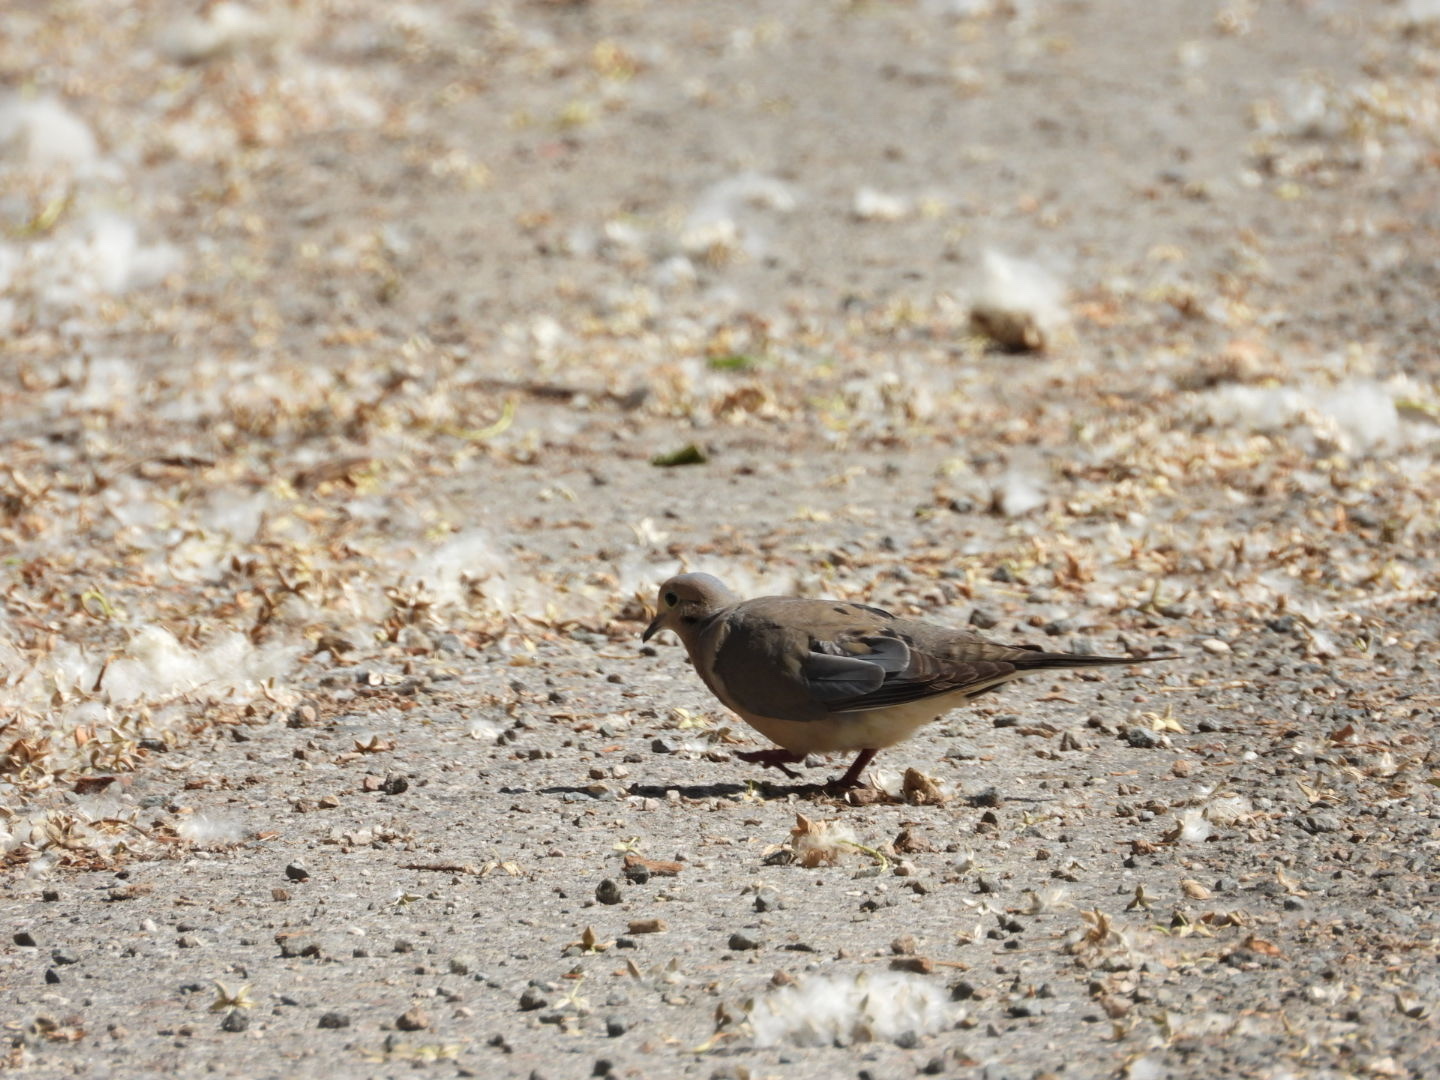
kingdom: Animalia
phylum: Chordata
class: Aves
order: Columbiformes
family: Columbidae
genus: Zenaida
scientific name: Zenaida macroura
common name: Mourning dove
